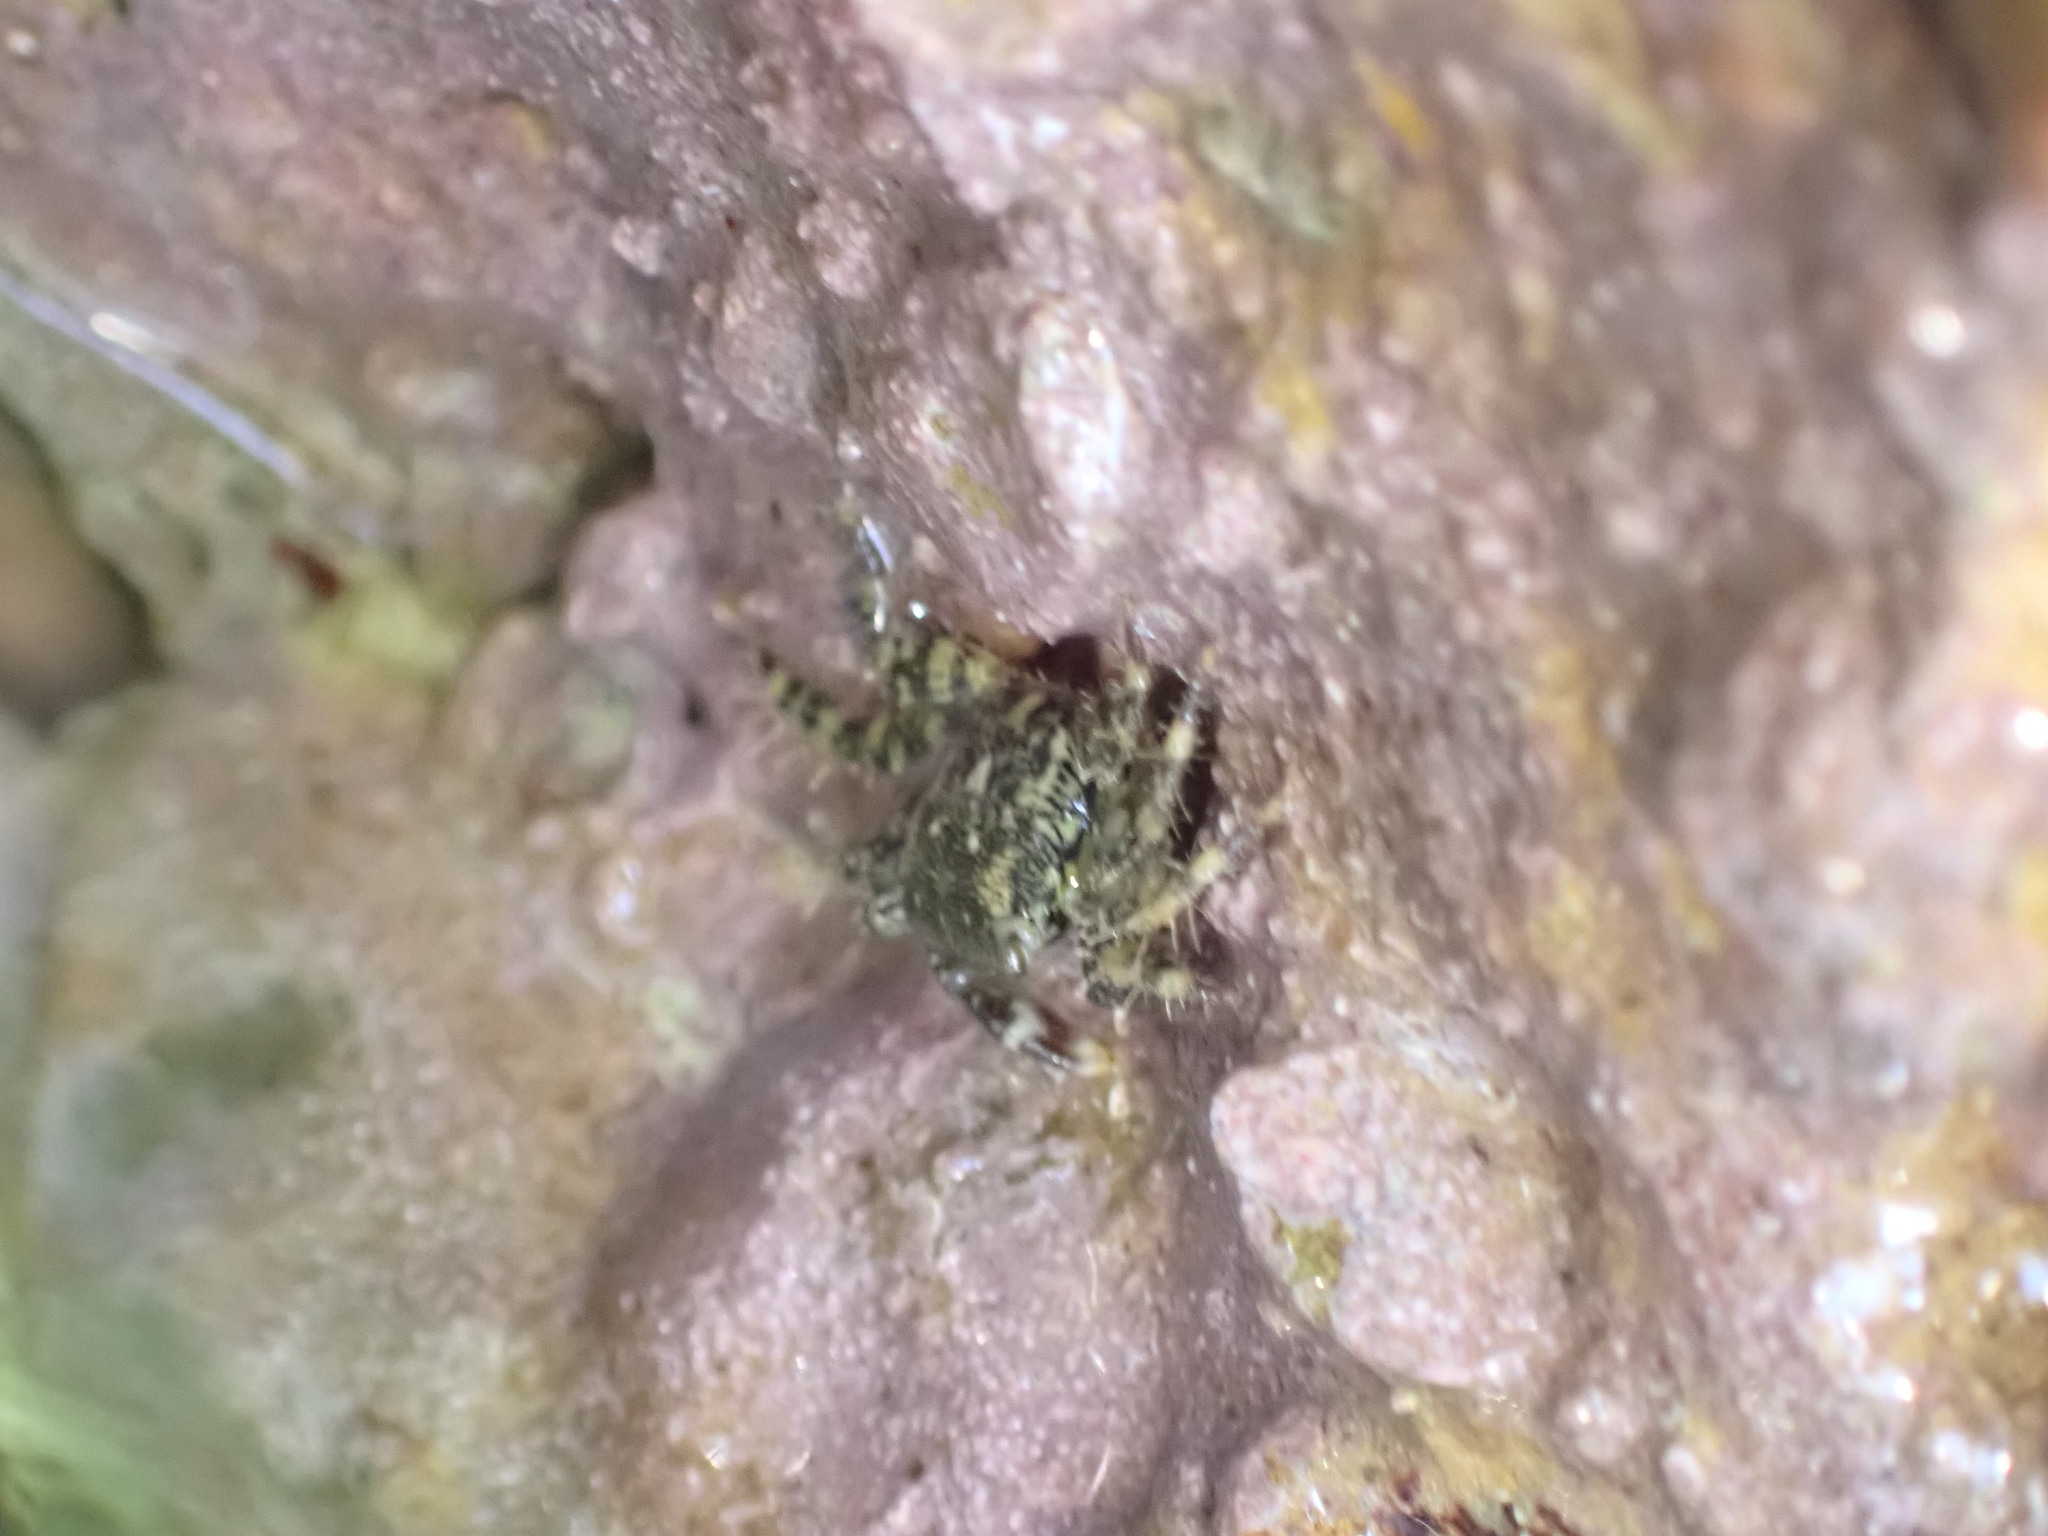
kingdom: Animalia
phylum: Arthropoda
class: Malacostraca
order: Decapoda
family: Grapsidae
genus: Pachygrapsus
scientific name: Pachygrapsus marmoratus
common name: Marbled rock crab
